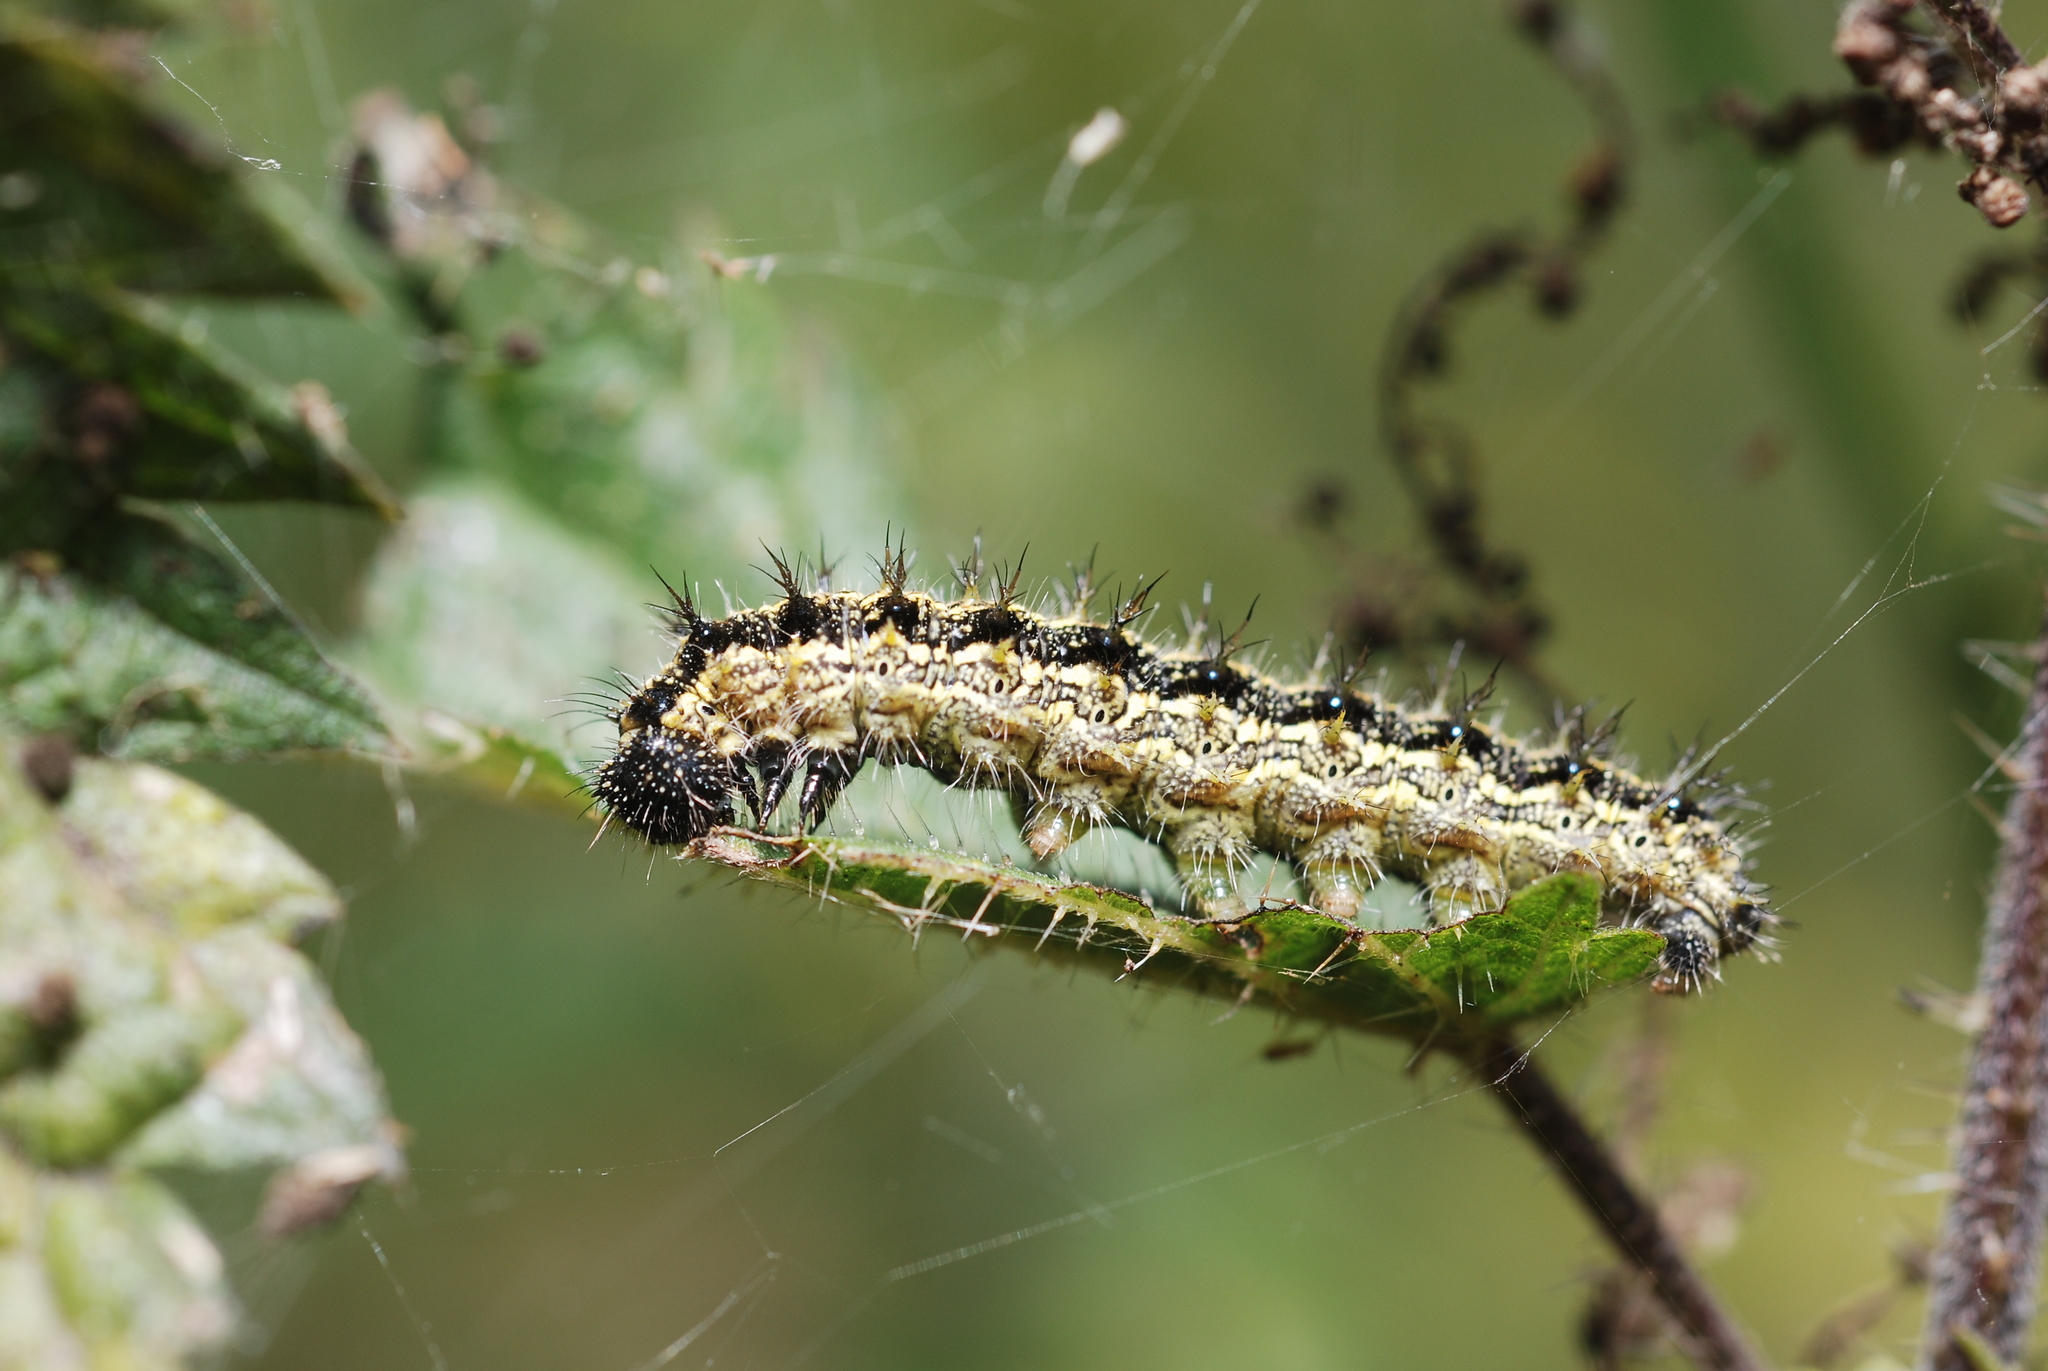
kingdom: Animalia
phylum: Arthropoda
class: Insecta
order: Lepidoptera
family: Nymphalidae
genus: Aglais
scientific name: Aglais urticae
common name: Small tortoiseshell
